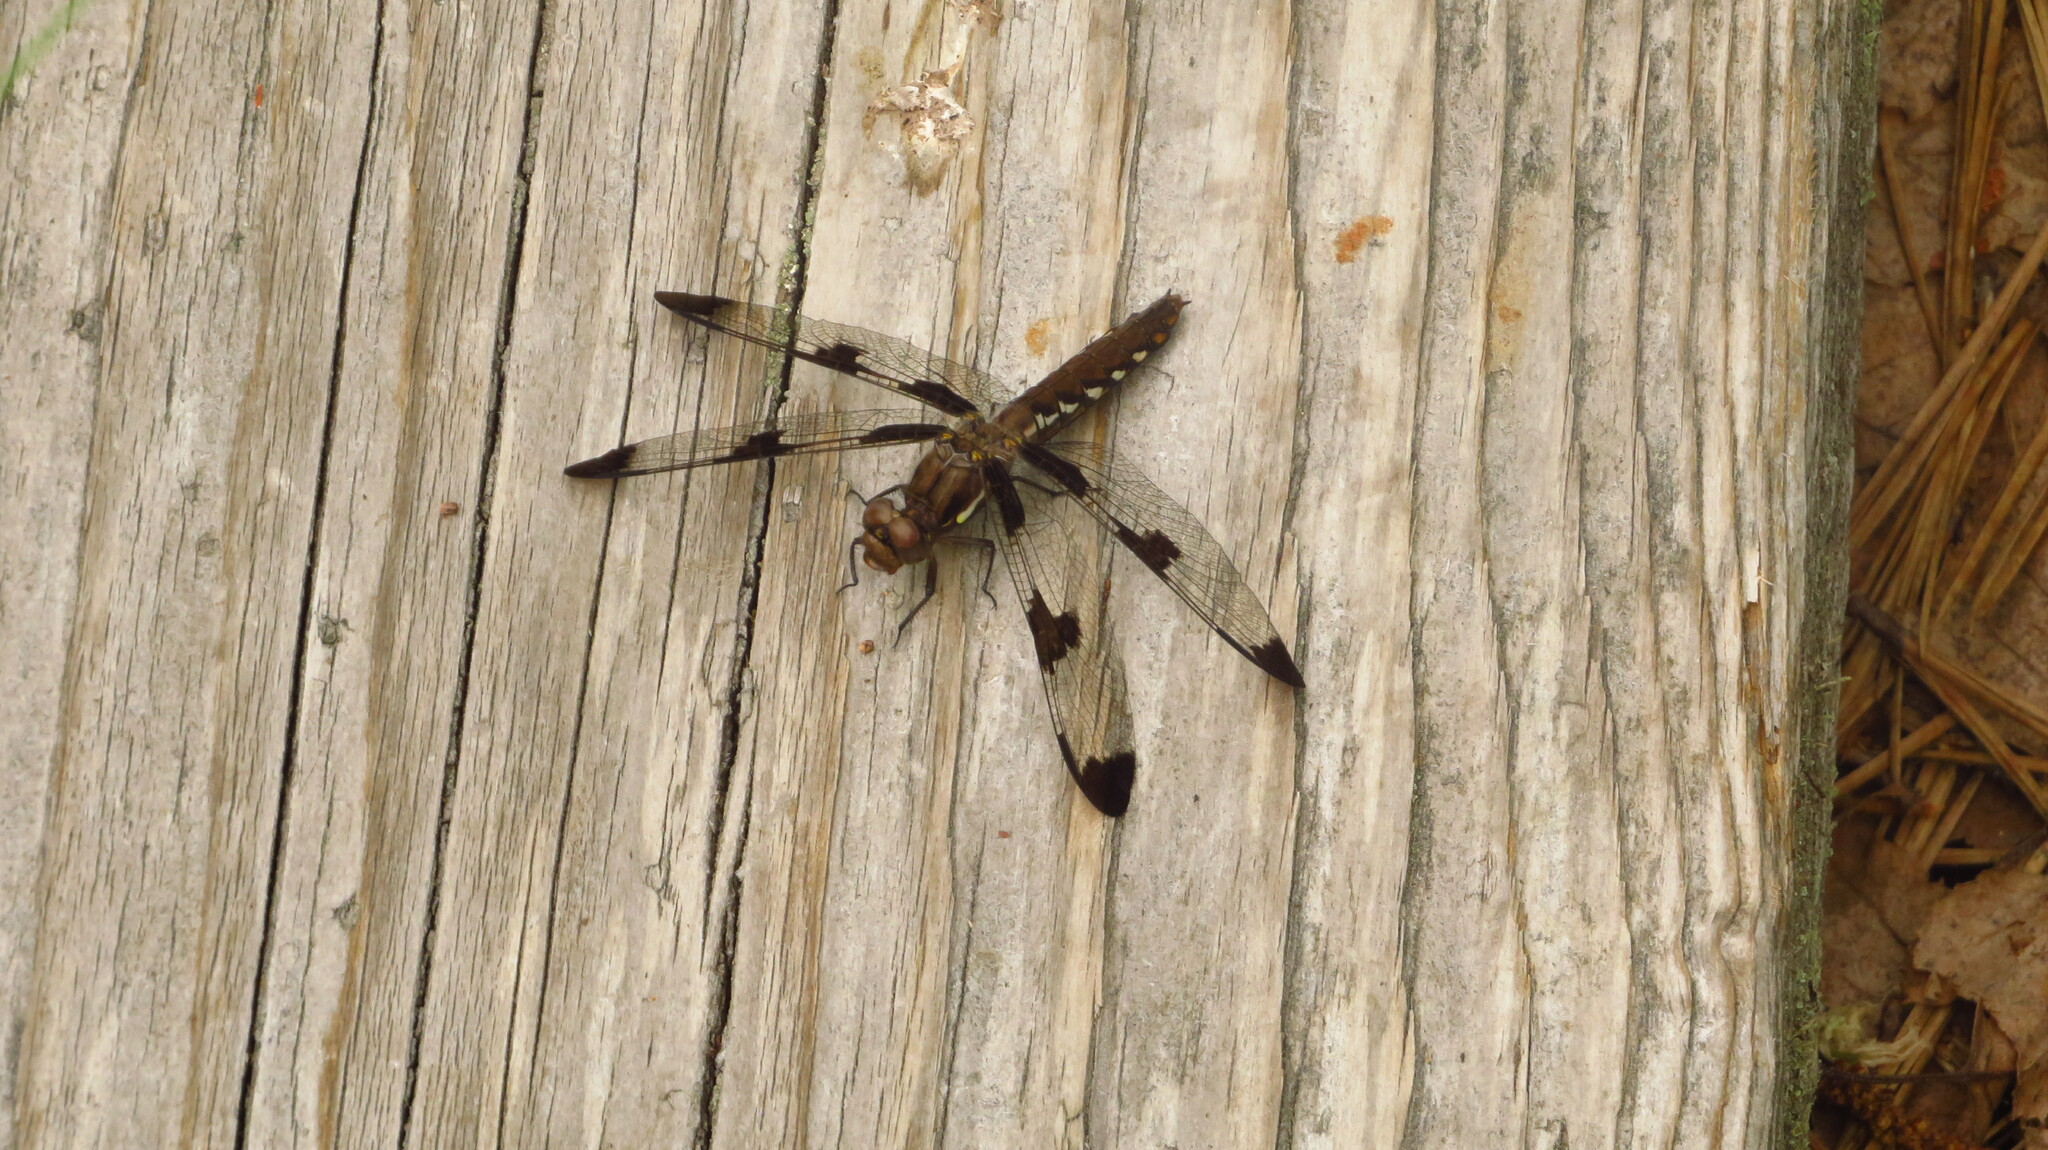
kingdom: Animalia
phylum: Arthropoda
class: Insecta
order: Odonata
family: Libellulidae
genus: Plathemis
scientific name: Plathemis lydia
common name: Common whitetail
